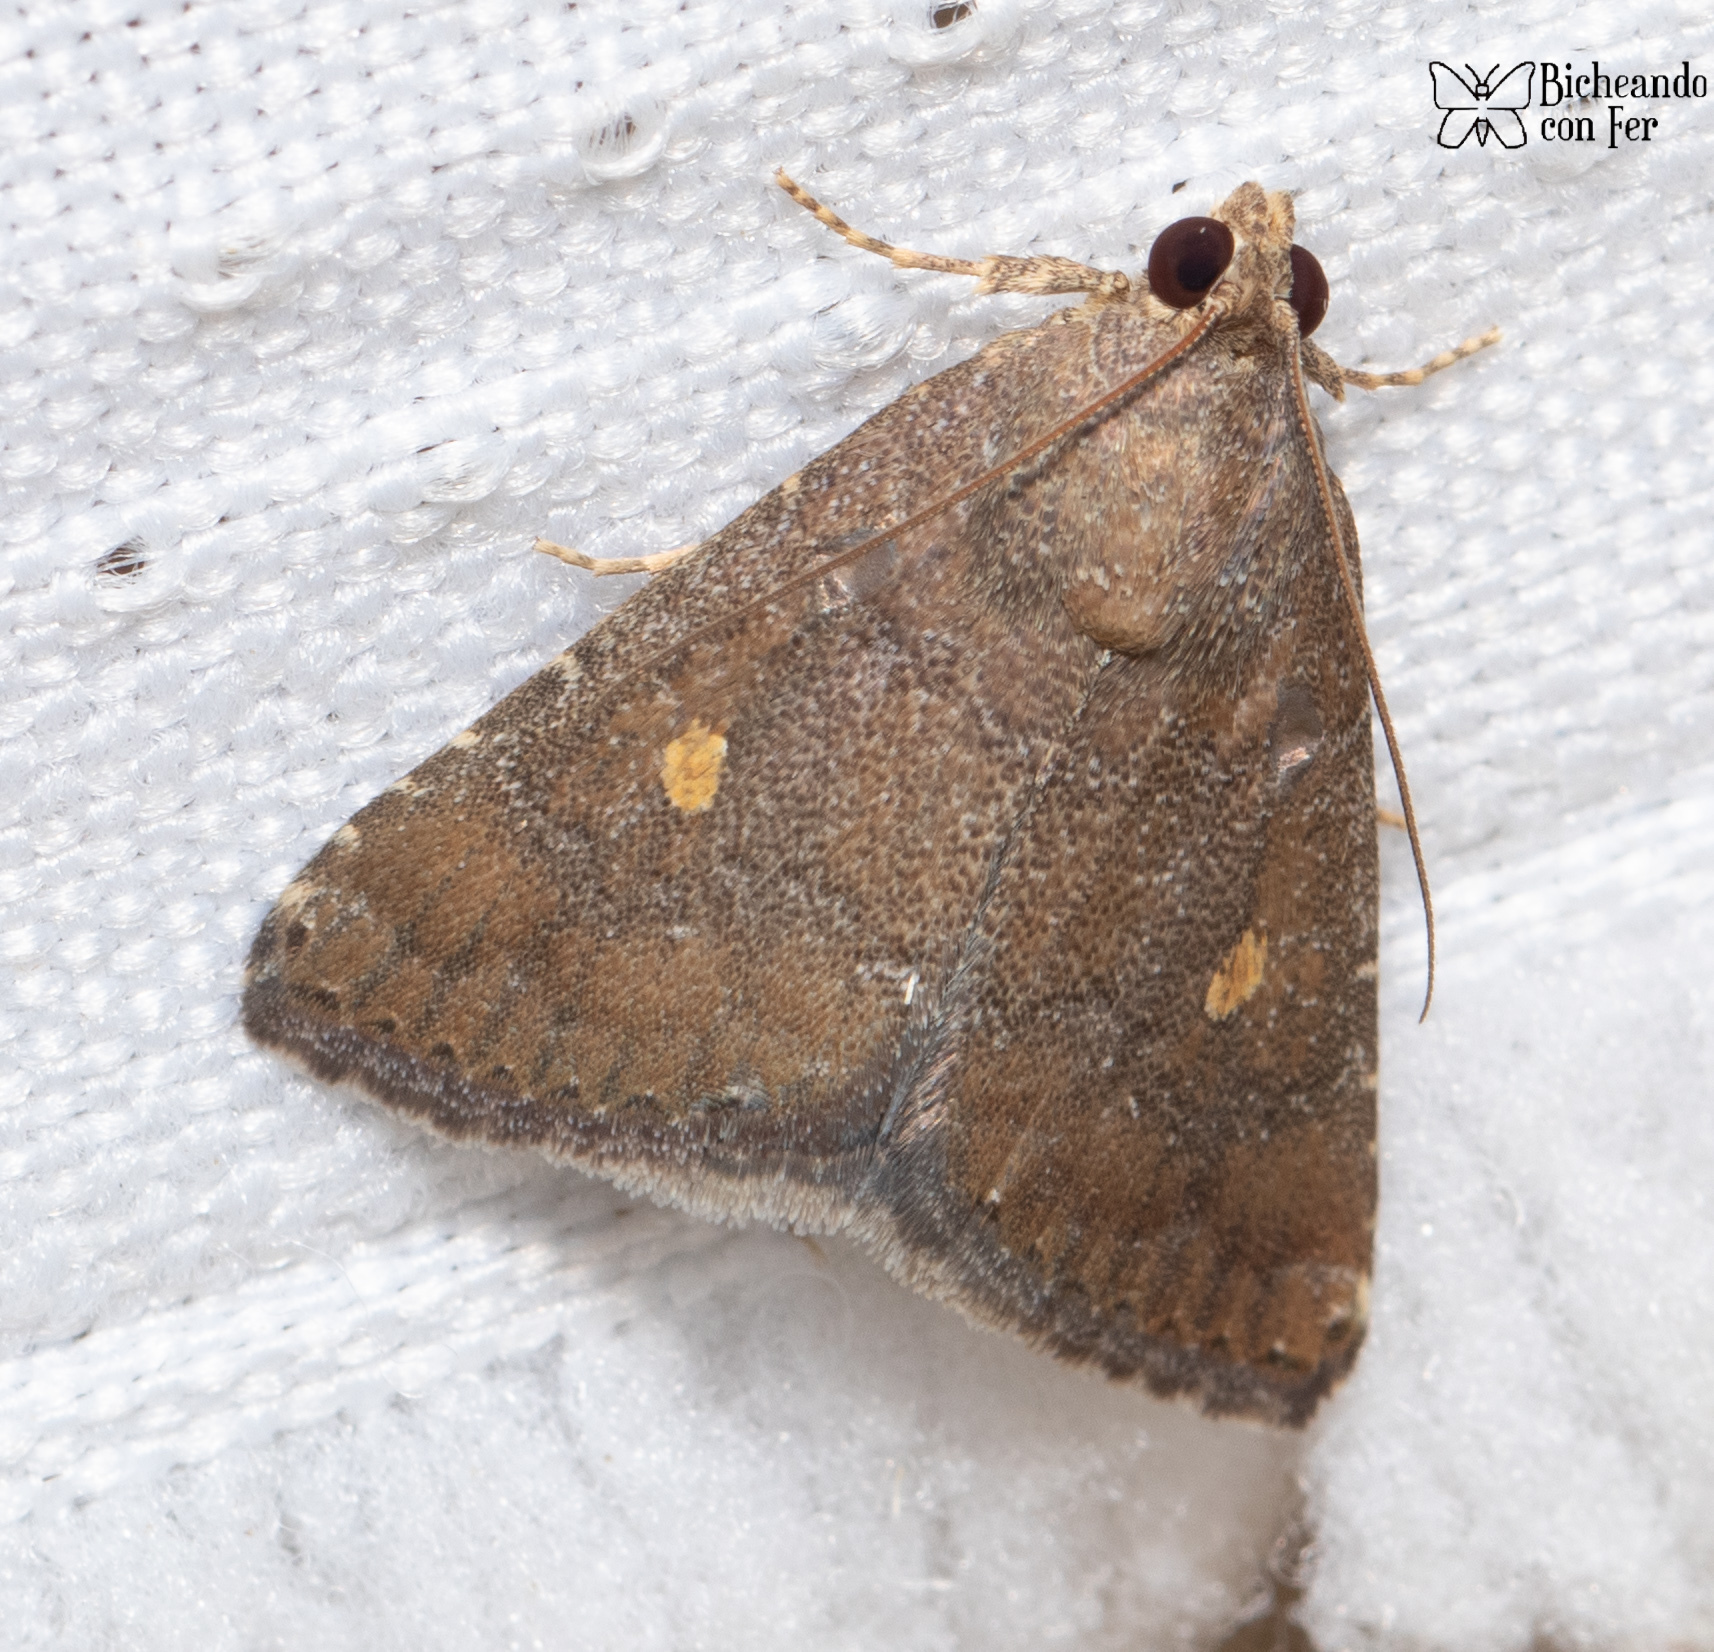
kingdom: Animalia
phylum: Arthropoda
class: Insecta
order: Lepidoptera
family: Noctuidae
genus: Amyna
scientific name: Amyna stricta
